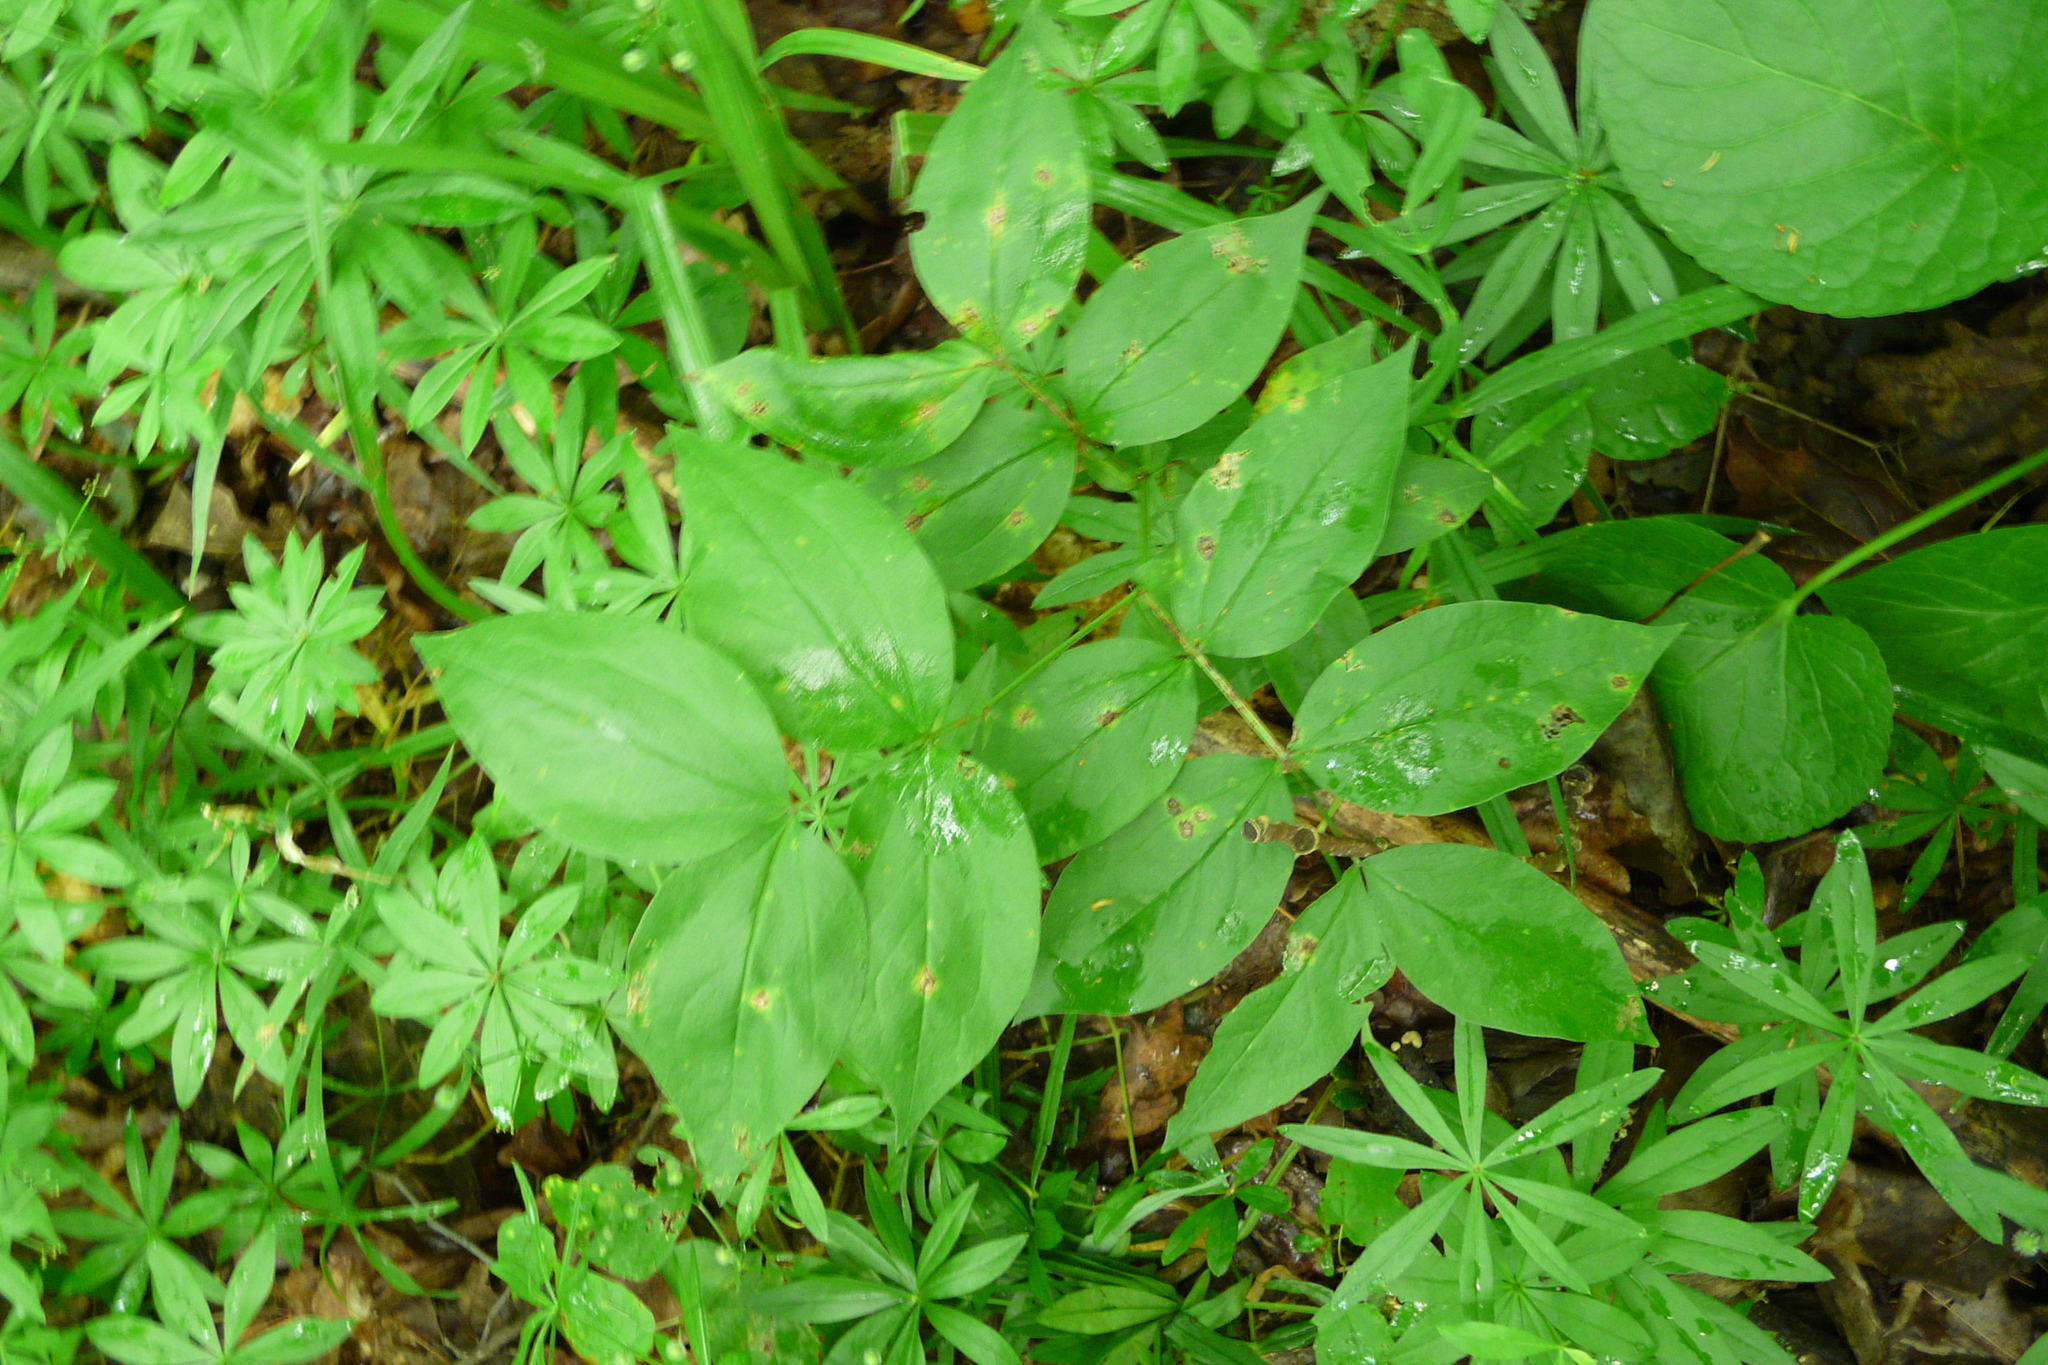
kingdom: Plantae
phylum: Tracheophyta
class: Magnoliopsida
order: Fabales
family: Fabaceae
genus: Lathyrus
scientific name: Lathyrus vernus
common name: Spring pea
